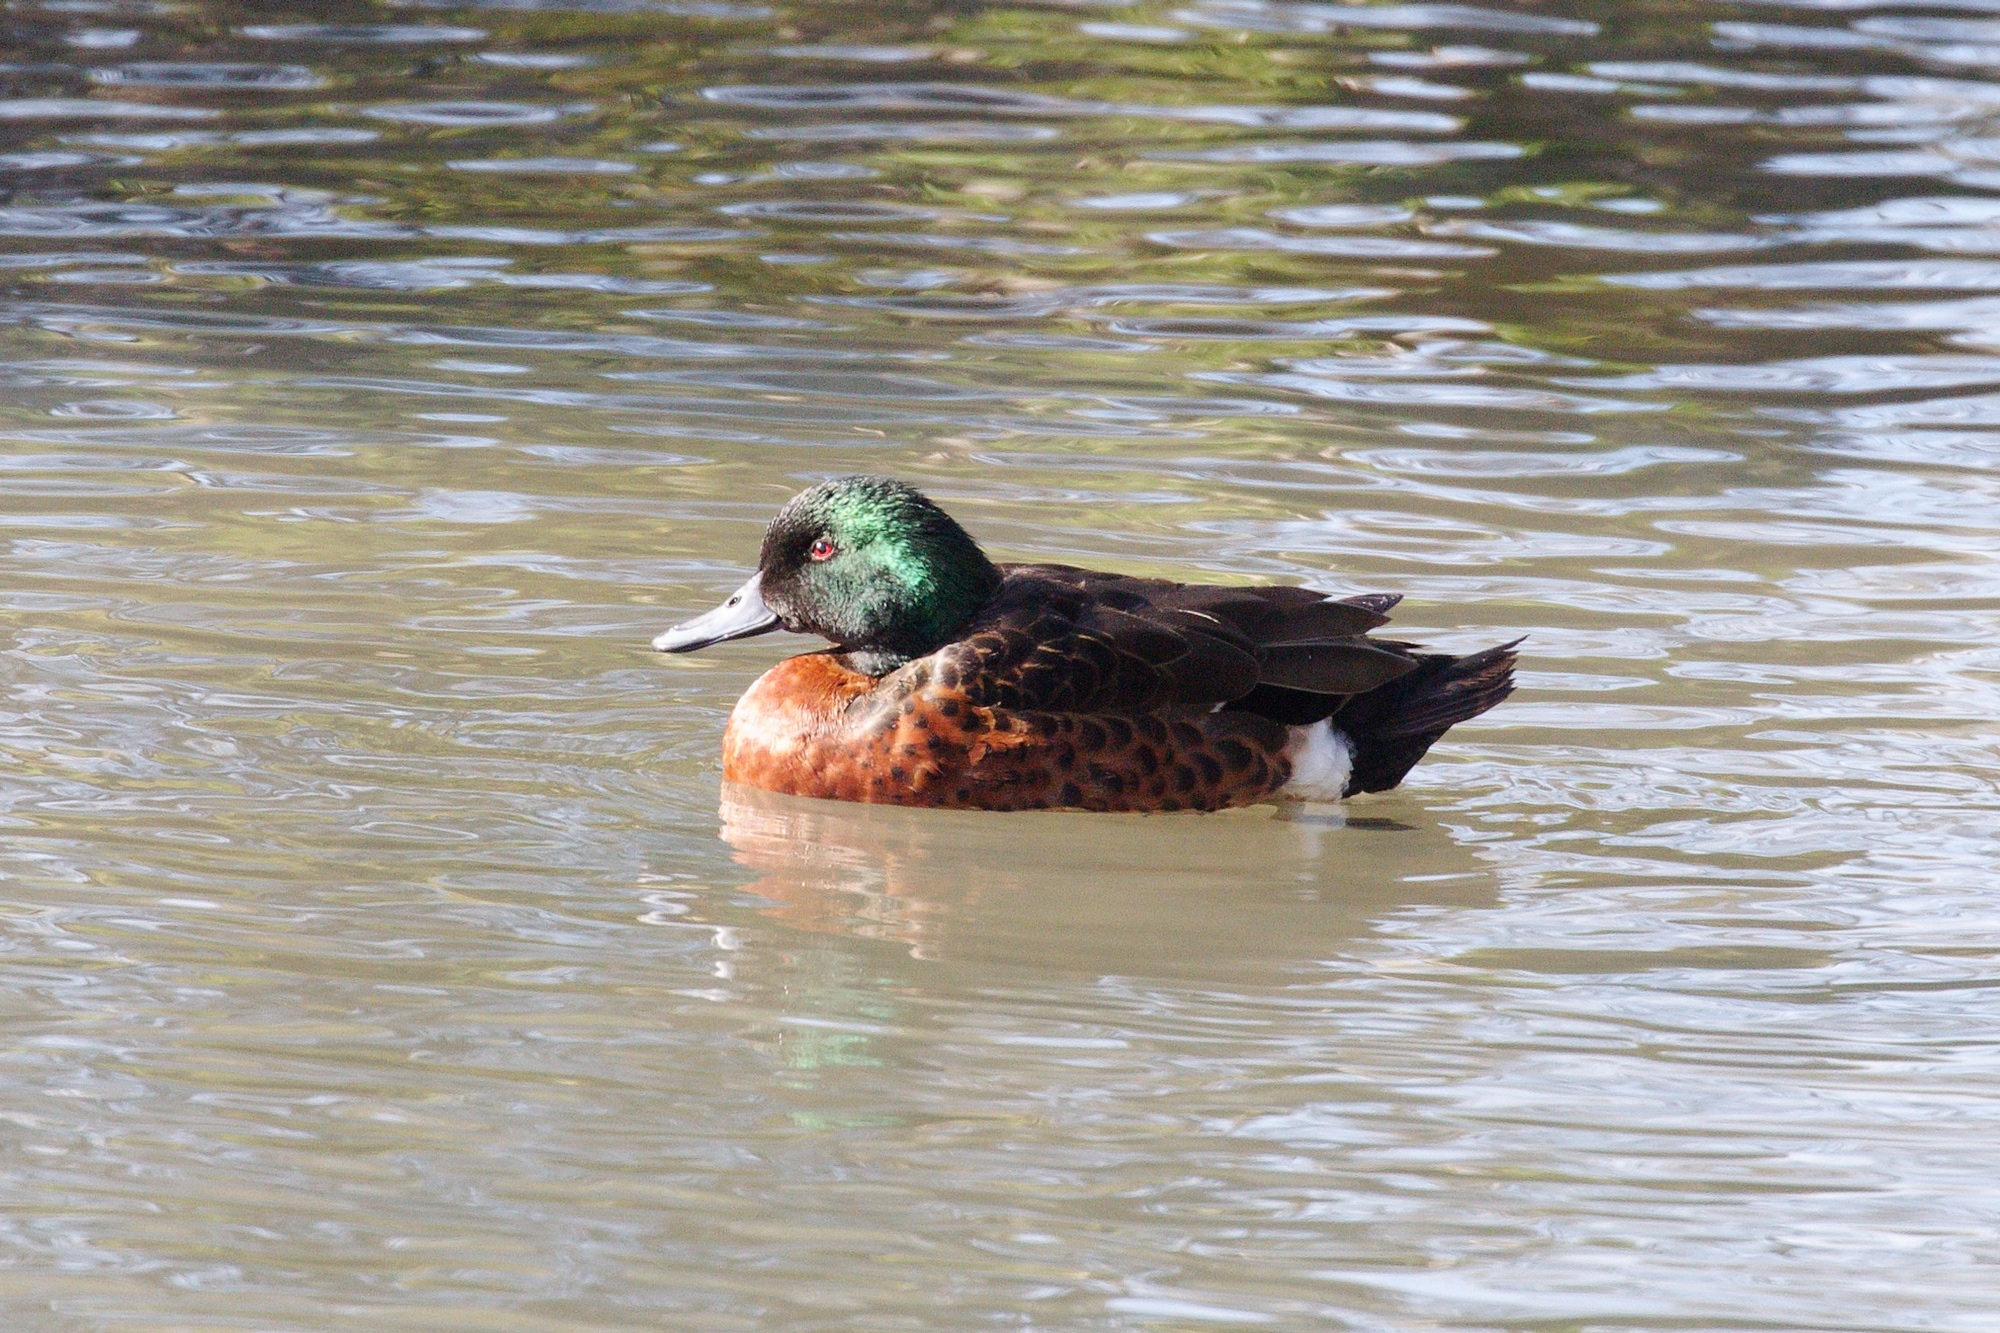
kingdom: Animalia
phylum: Chordata
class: Aves
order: Anseriformes
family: Anatidae
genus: Anas
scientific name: Anas castanea
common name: Chestnut teal
